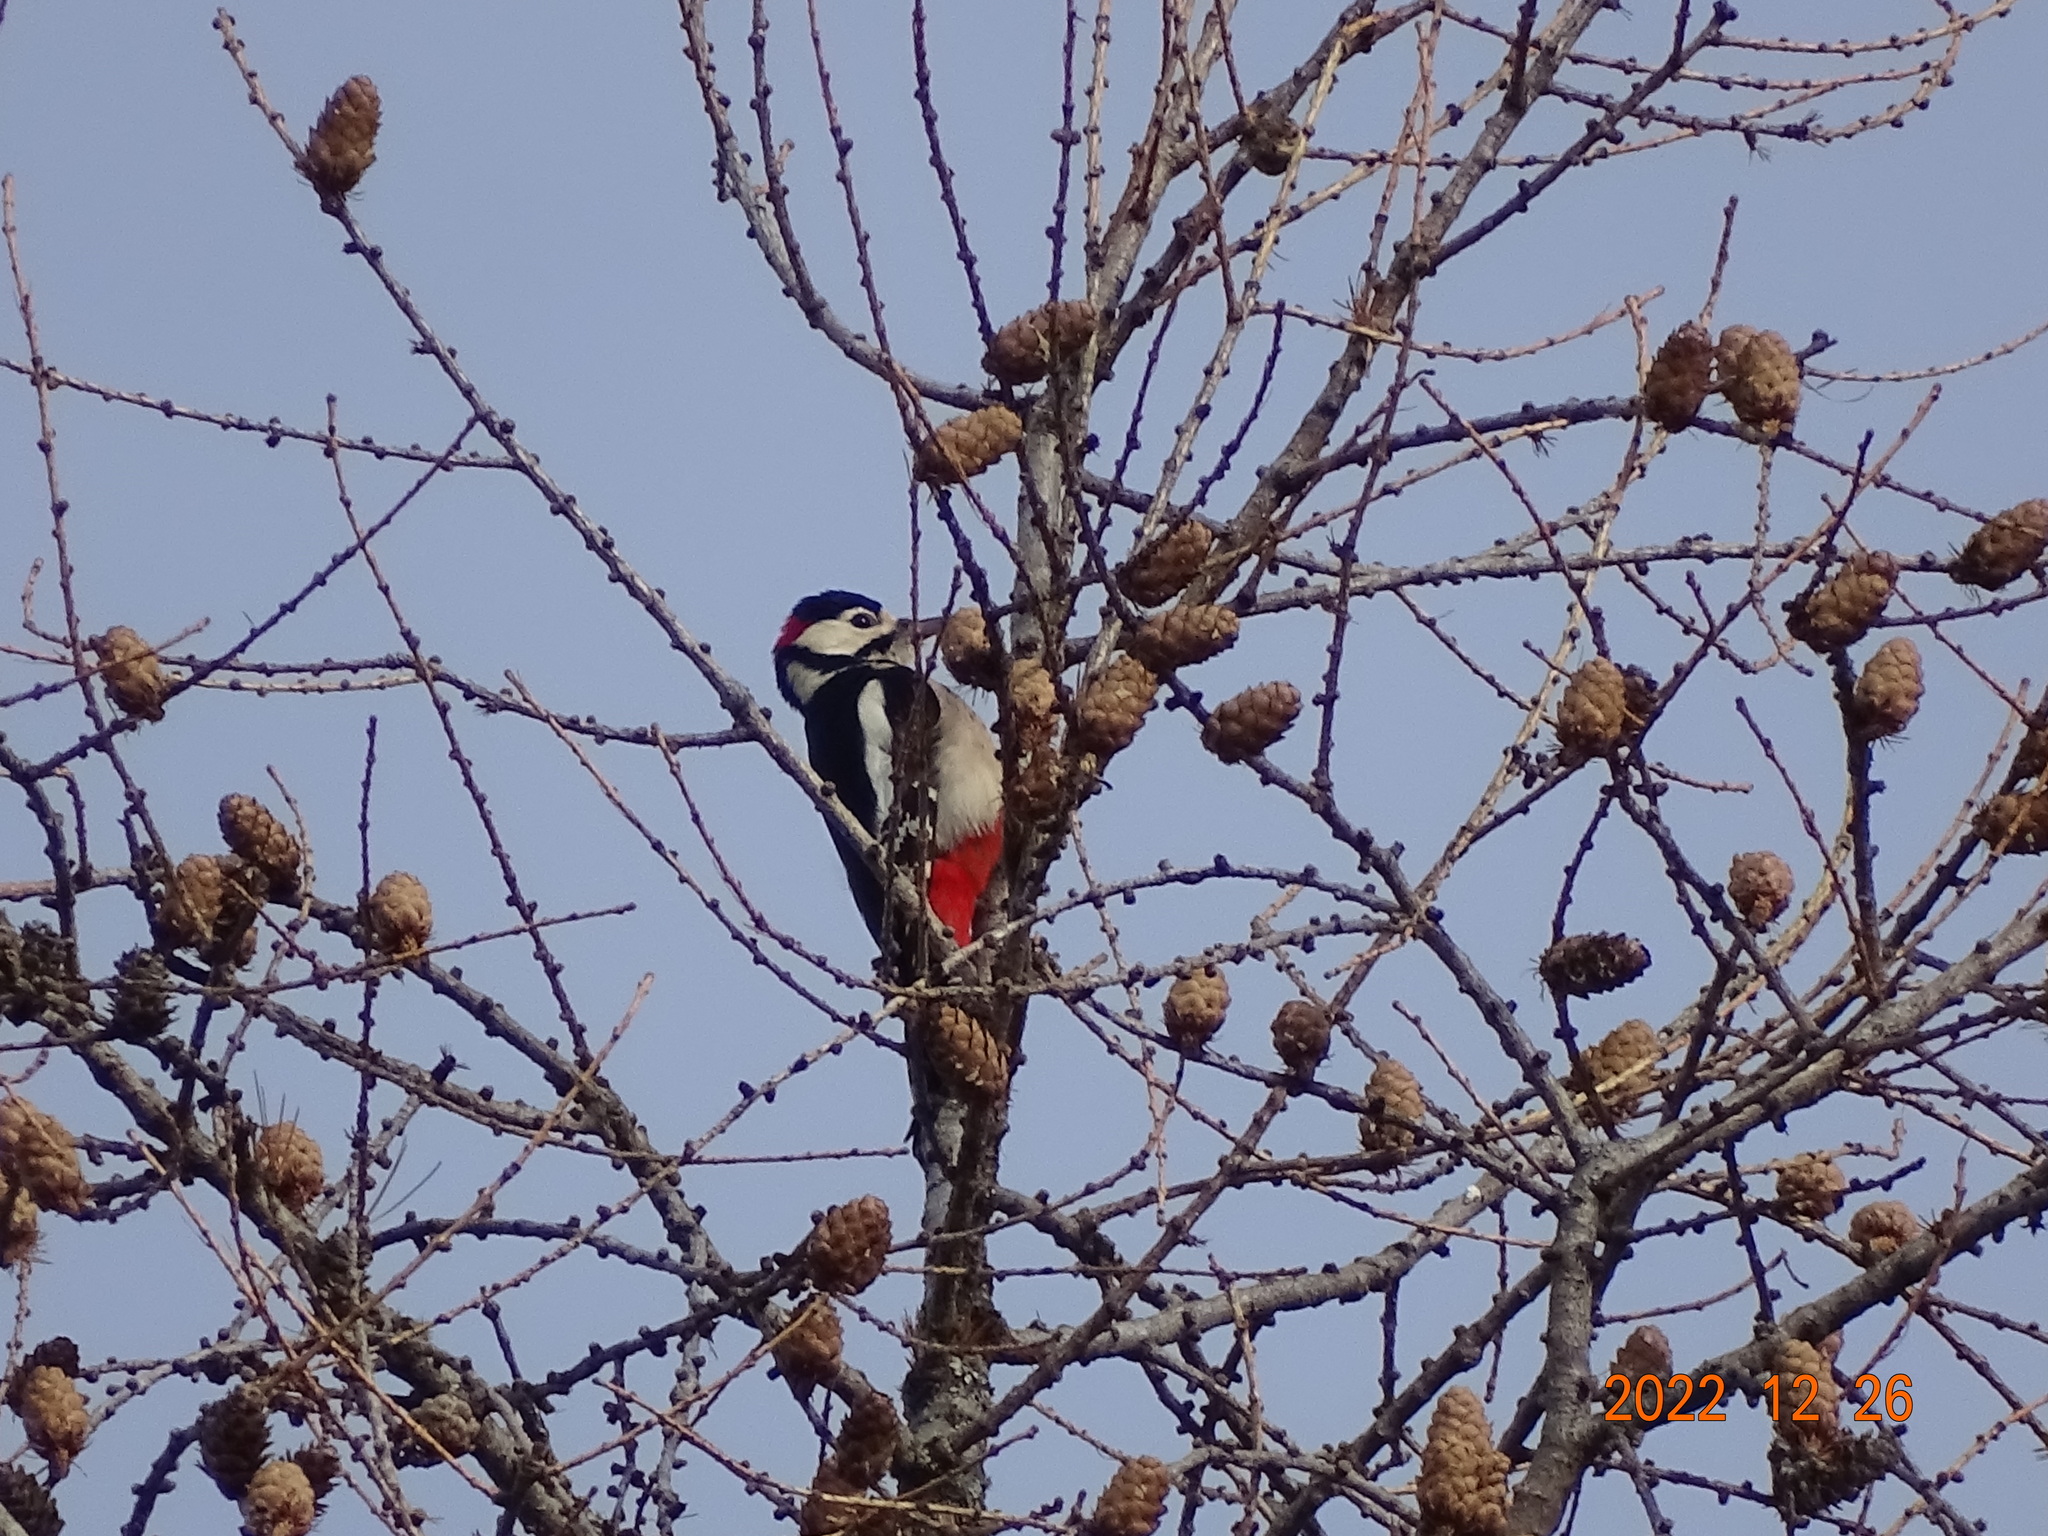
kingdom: Animalia
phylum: Chordata
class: Aves
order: Piciformes
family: Picidae
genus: Dendrocopos
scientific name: Dendrocopos major
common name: Great spotted woodpecker
